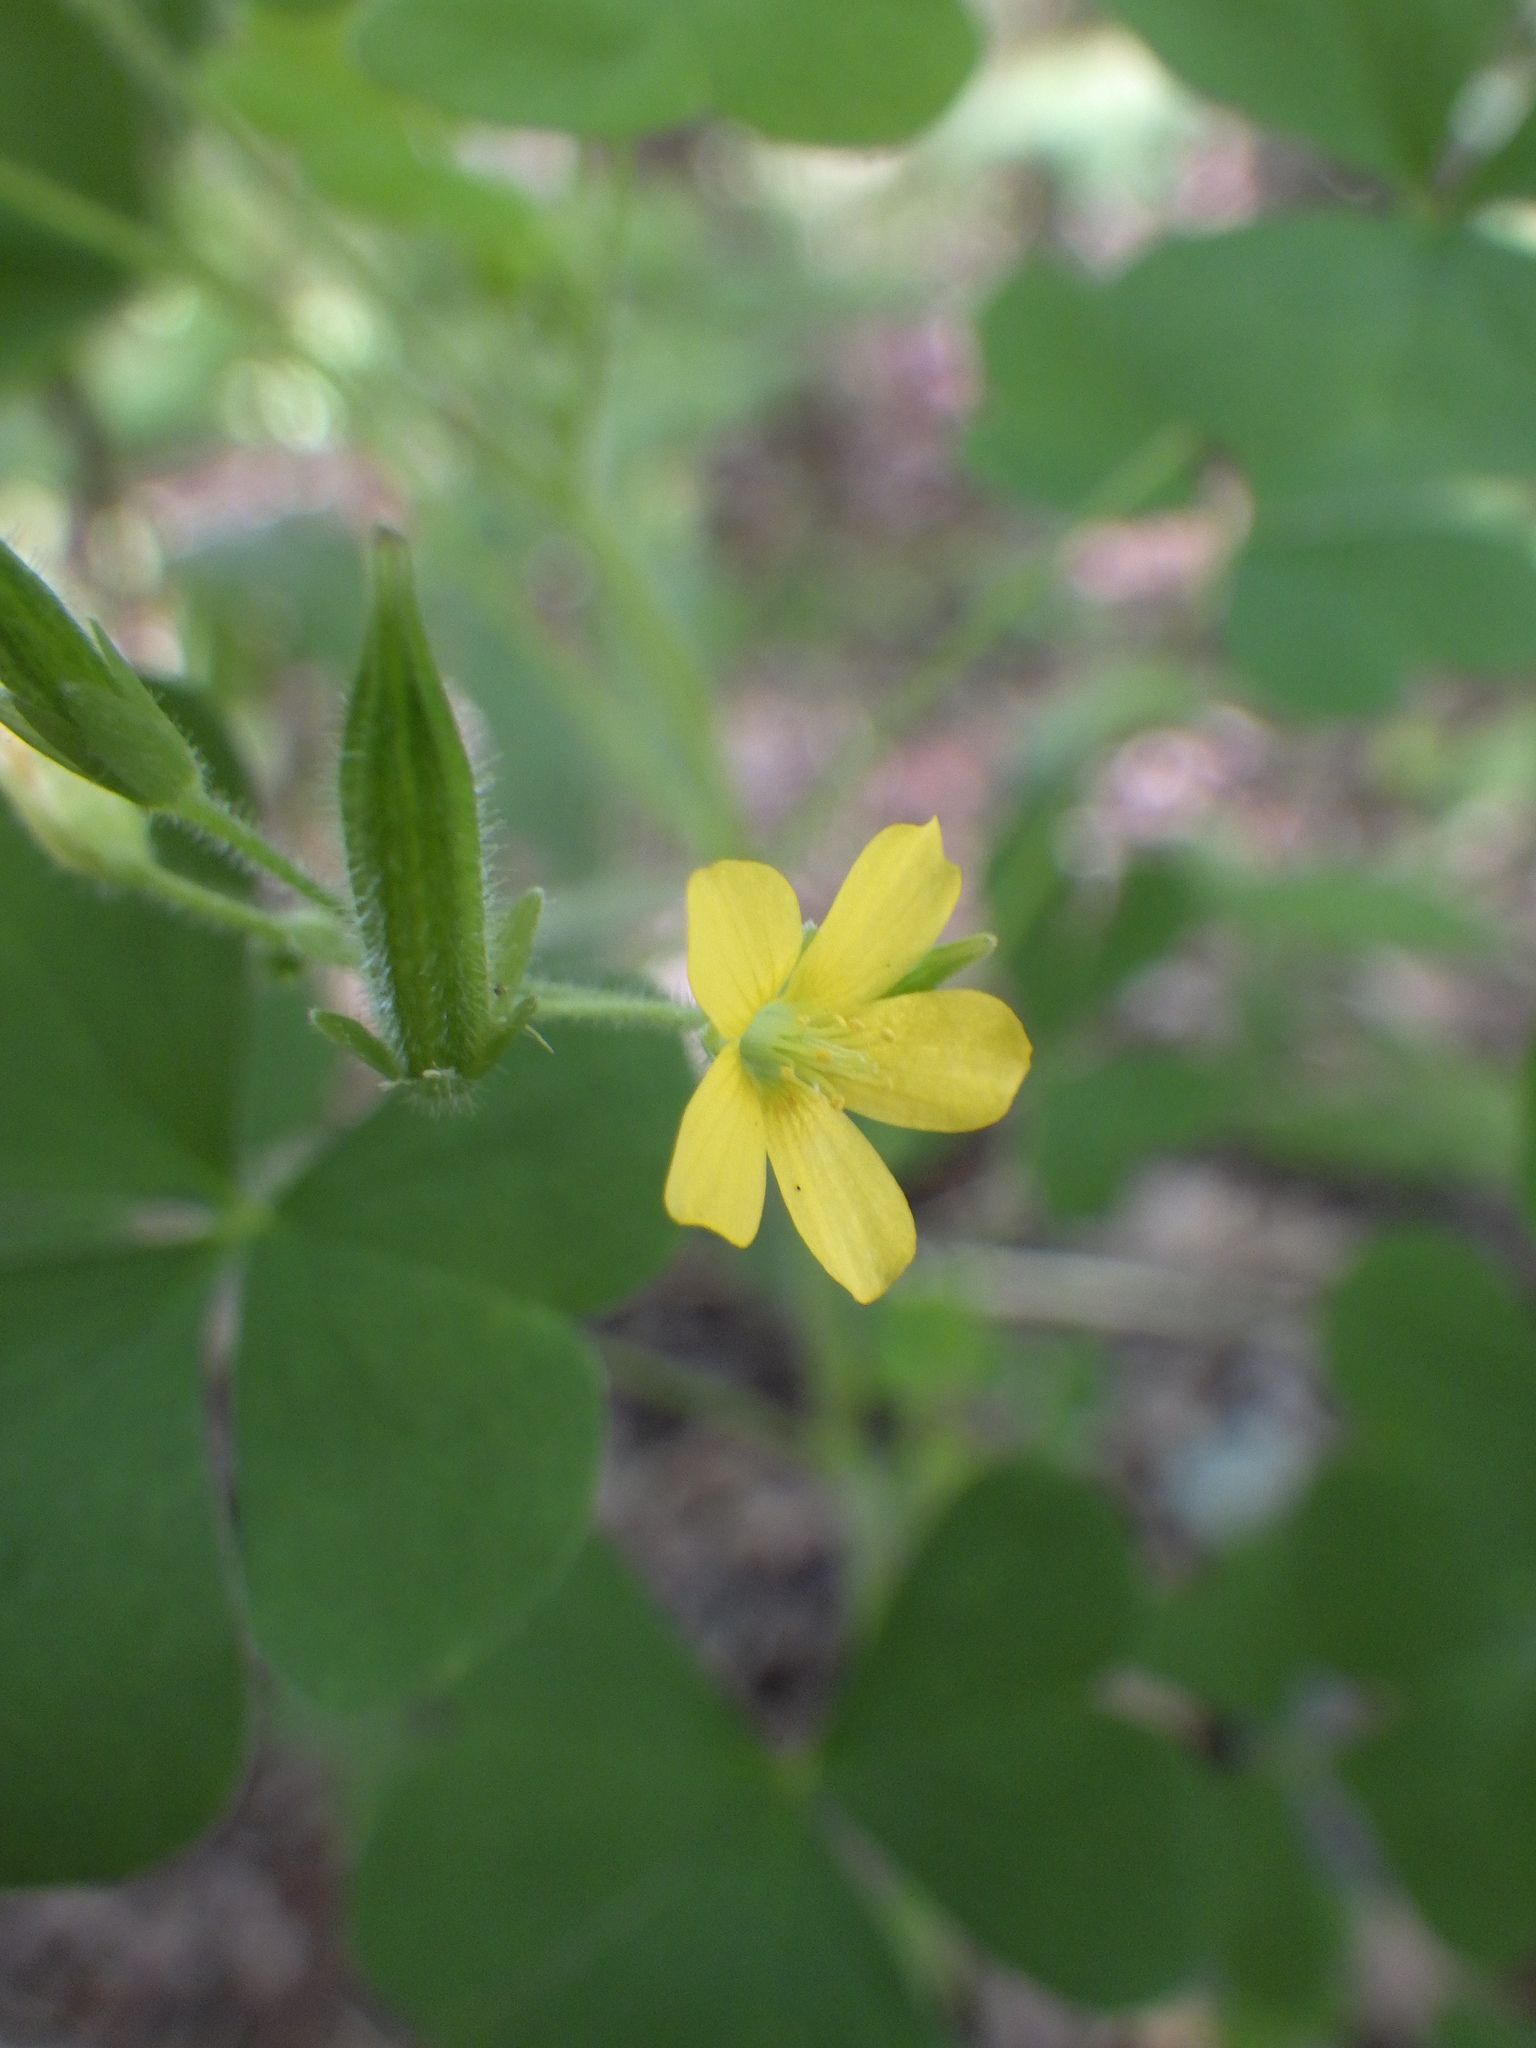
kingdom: Plantae
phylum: Tracheophyta
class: Magnoliopsida
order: Oxalidales
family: Oxalidaceae
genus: Oxalis
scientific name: Oxalis stricta
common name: Upright yellow-sorrel
